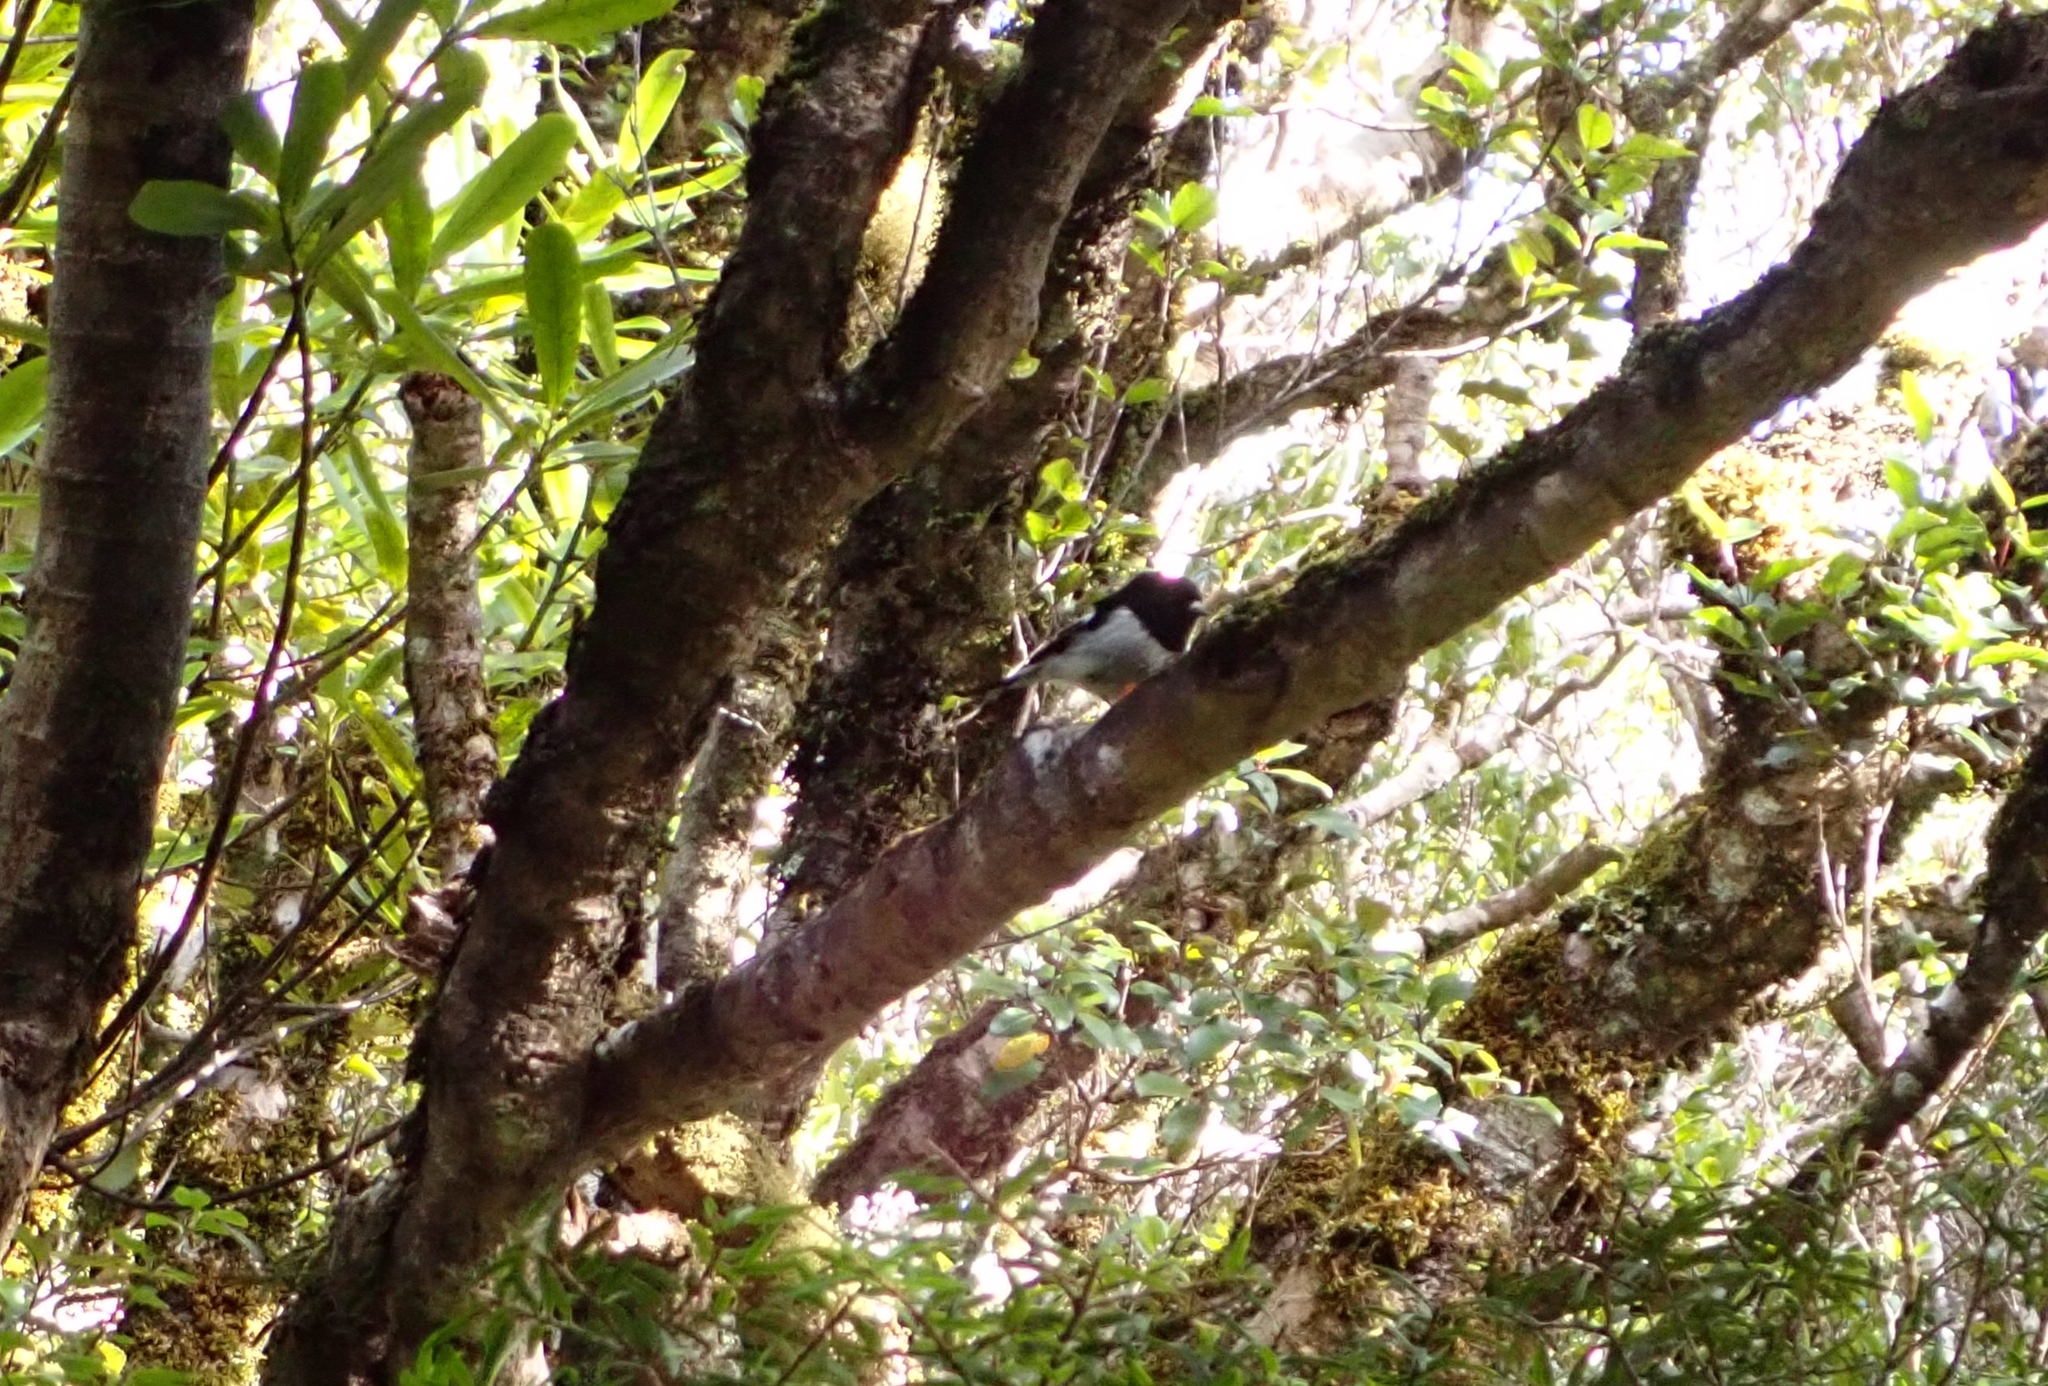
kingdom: Animalia
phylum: Chordata
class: Aves
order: Passeriformes
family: Petroicidae
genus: Petroica
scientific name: Petroica macrocephala
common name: Tomtit
